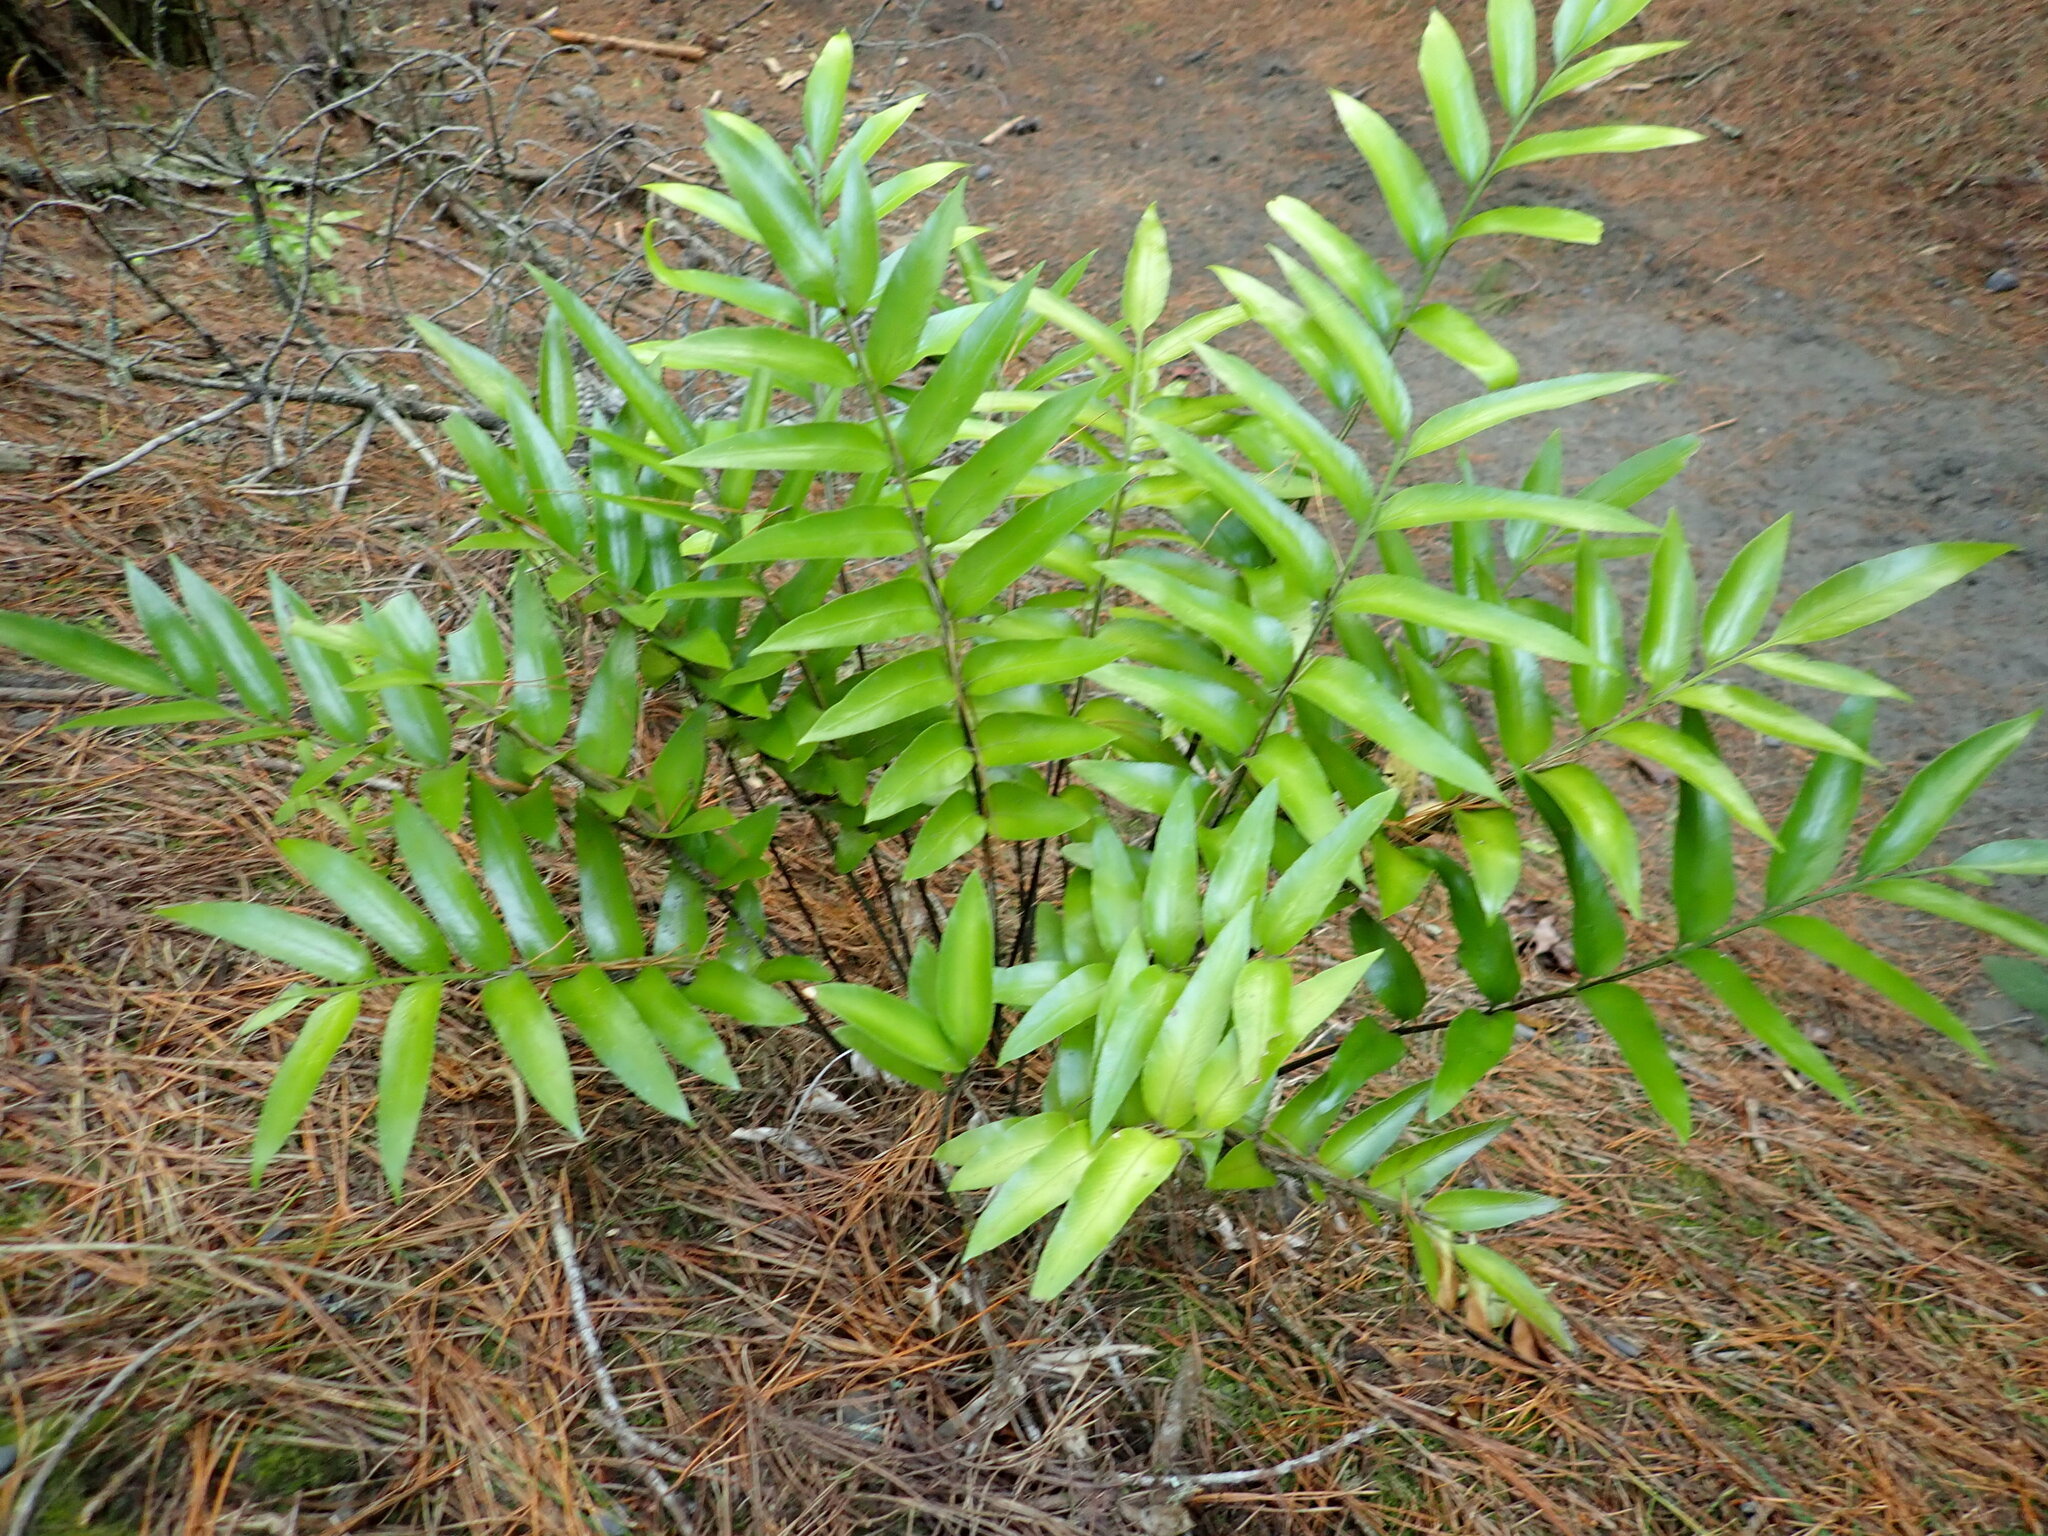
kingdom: Plantae
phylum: Tracheophyta
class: Polypodiopsida
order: Polypodiales
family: Aspleniaceae
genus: Asplenium
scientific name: Asplenium oblongifolium
